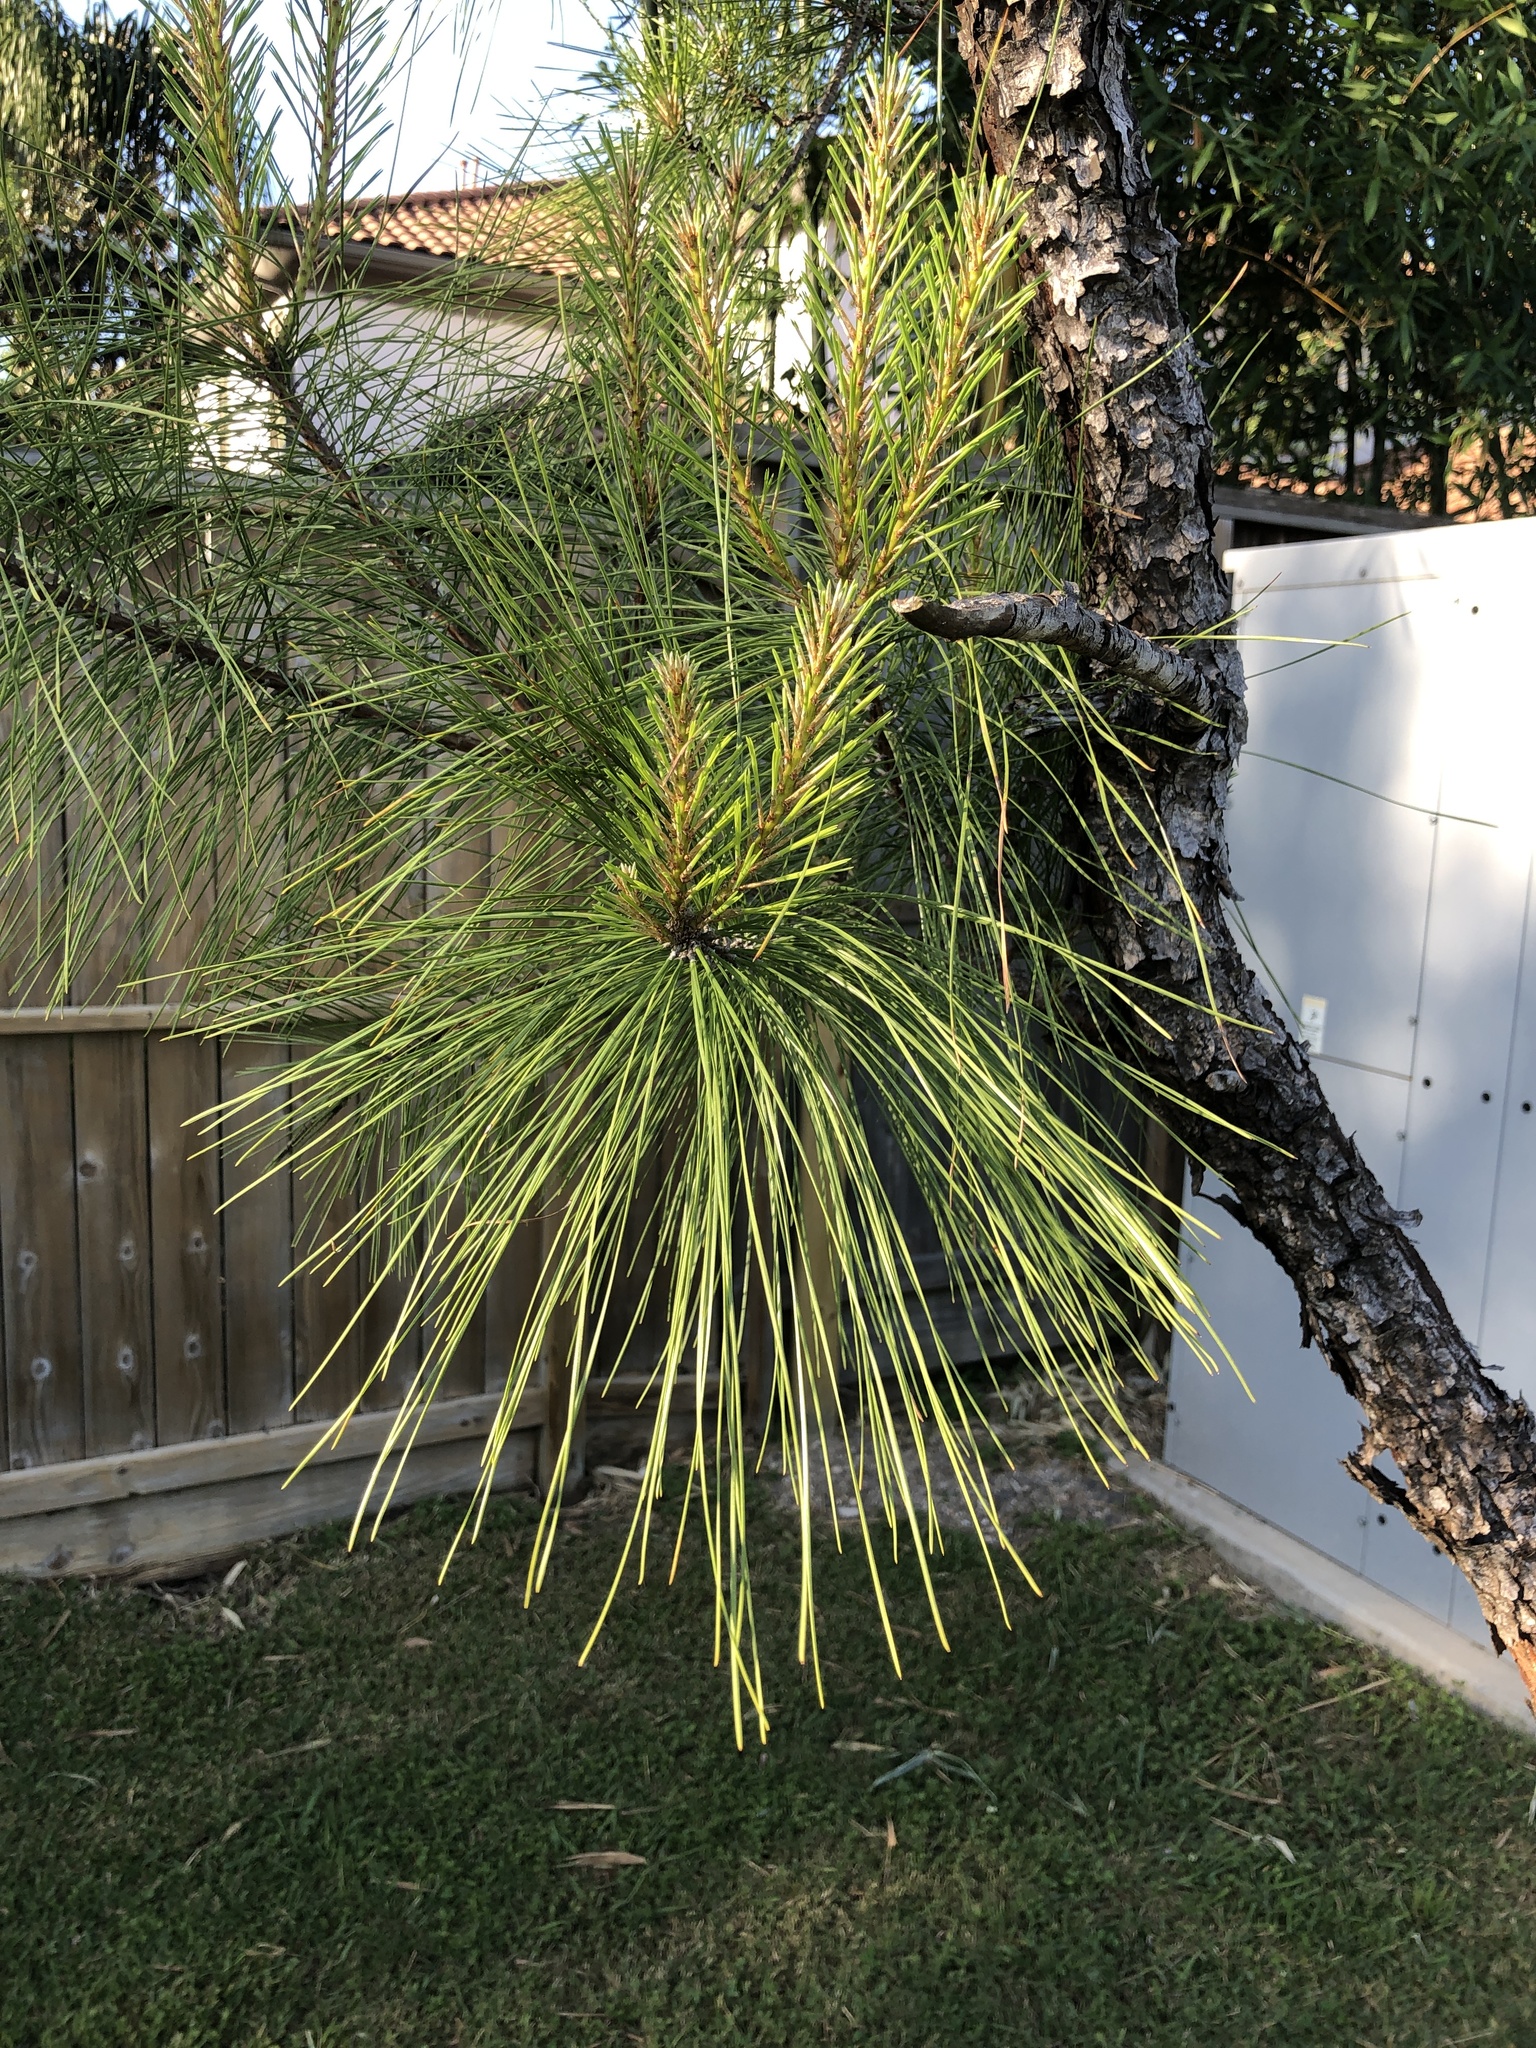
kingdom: Plantae
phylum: Tracheophyta
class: Pinopsida
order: Pinales
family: Pinaceae
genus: Pinus
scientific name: Pinus taeda
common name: Loblolly pine
